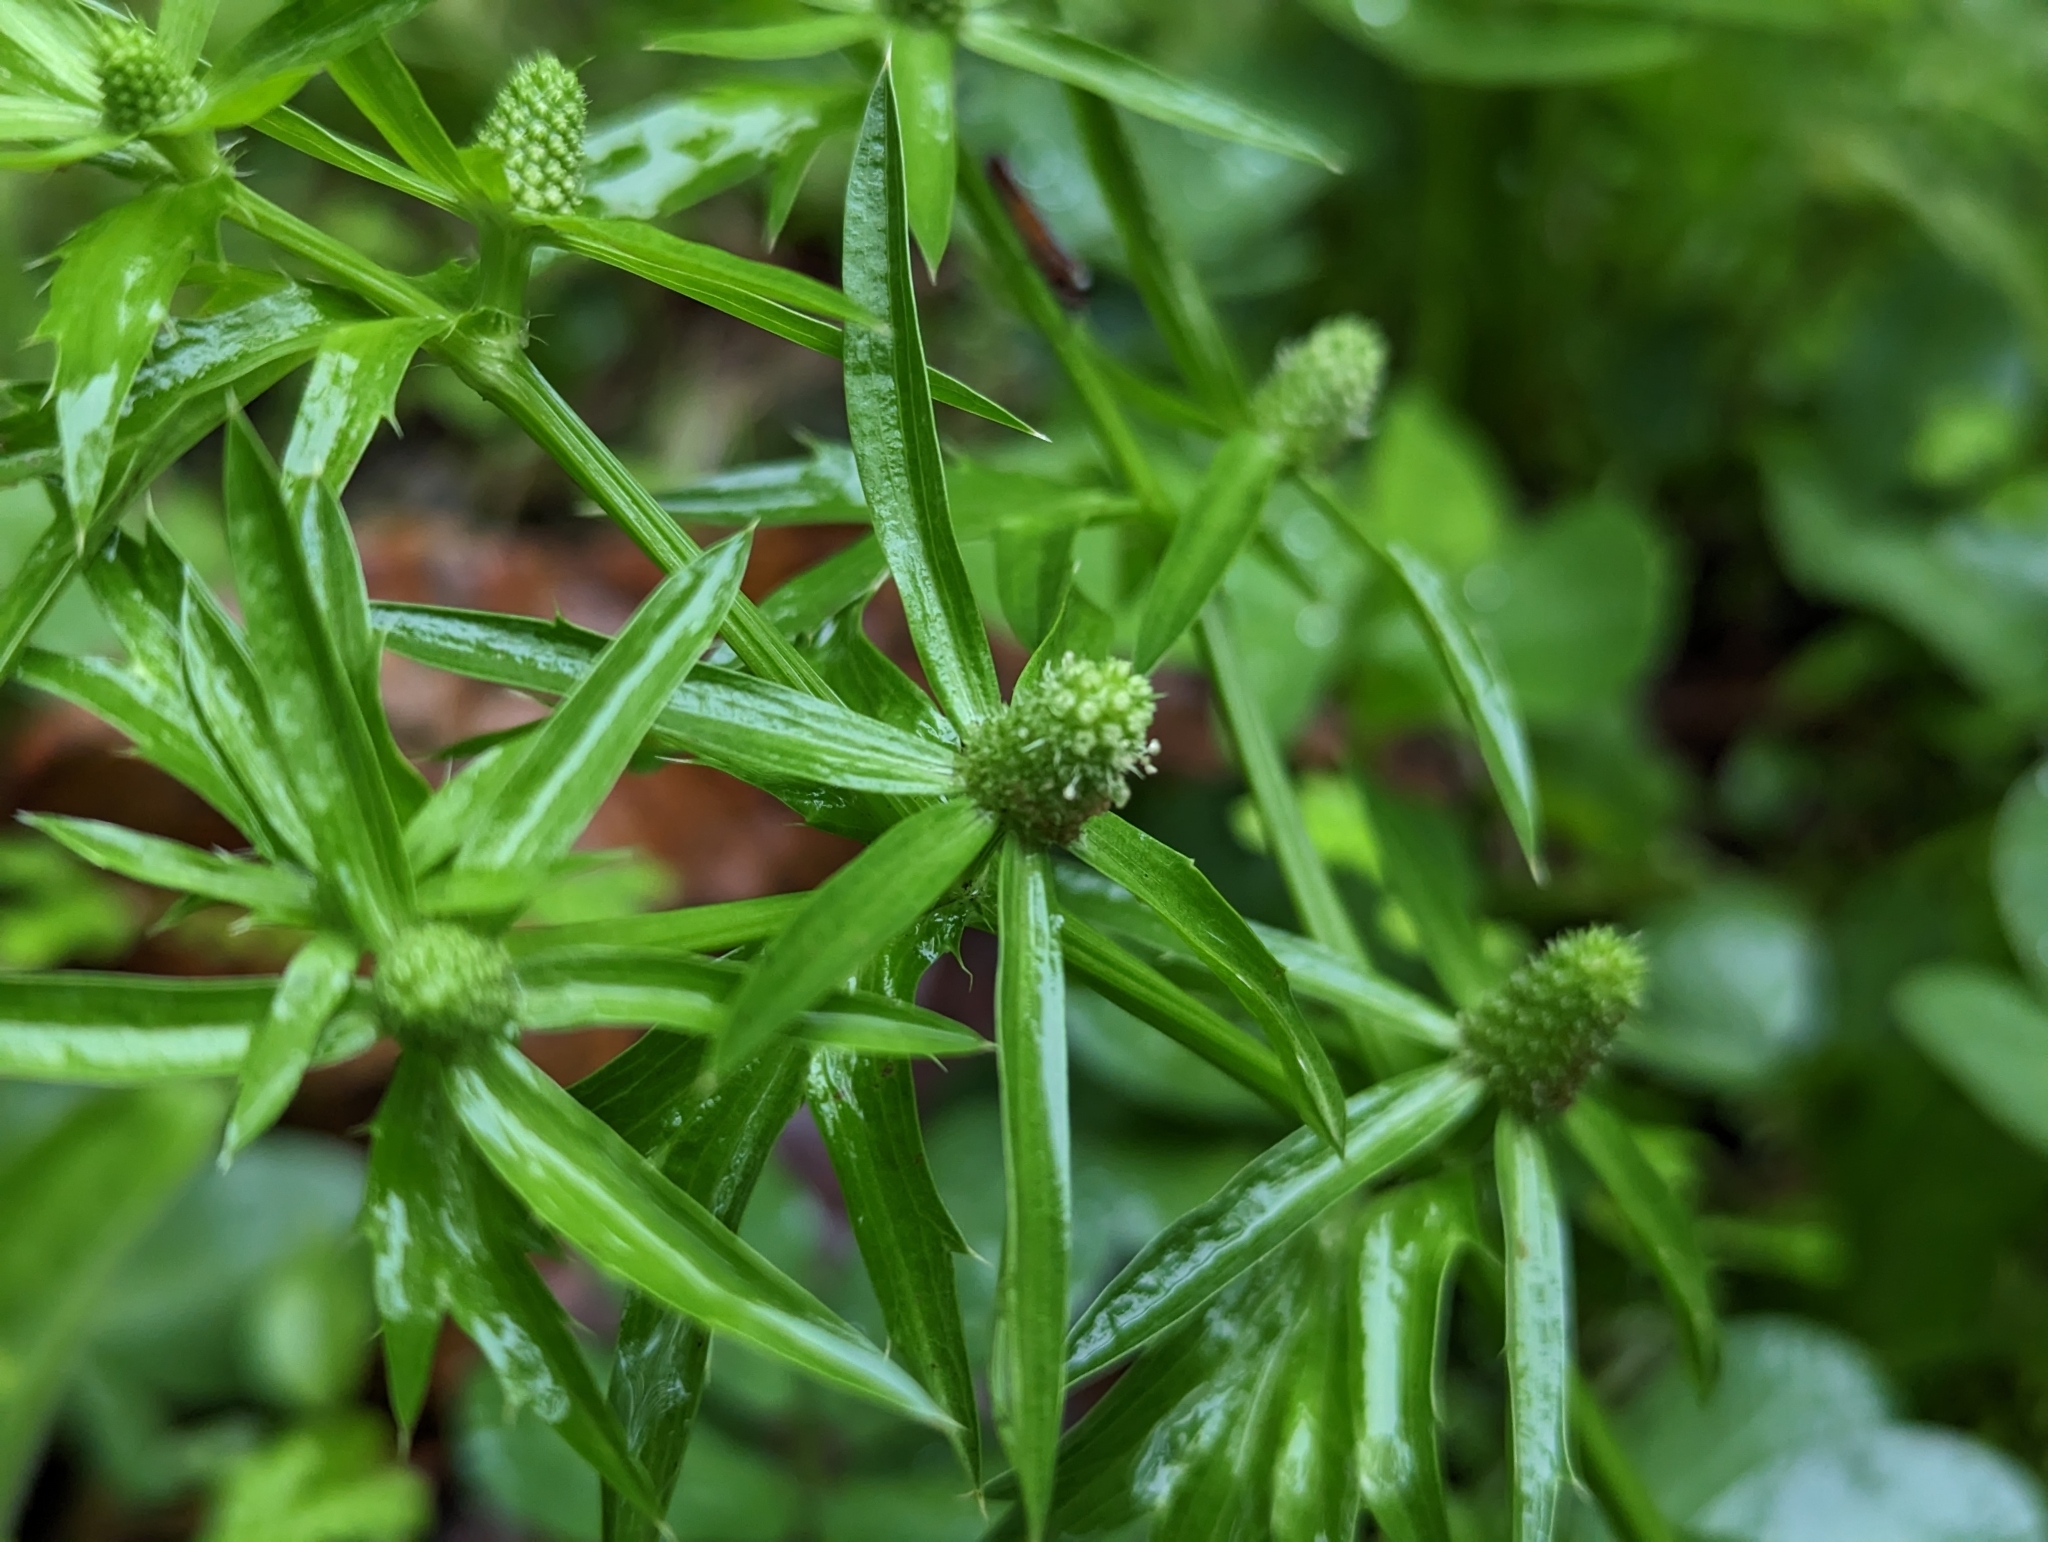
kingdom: Plantae
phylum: Tracheophyta
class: Magnoliopsida
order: Apiales
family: Apiaceae
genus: Eryngium
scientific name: Eryngium foetidum
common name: Fitweed
